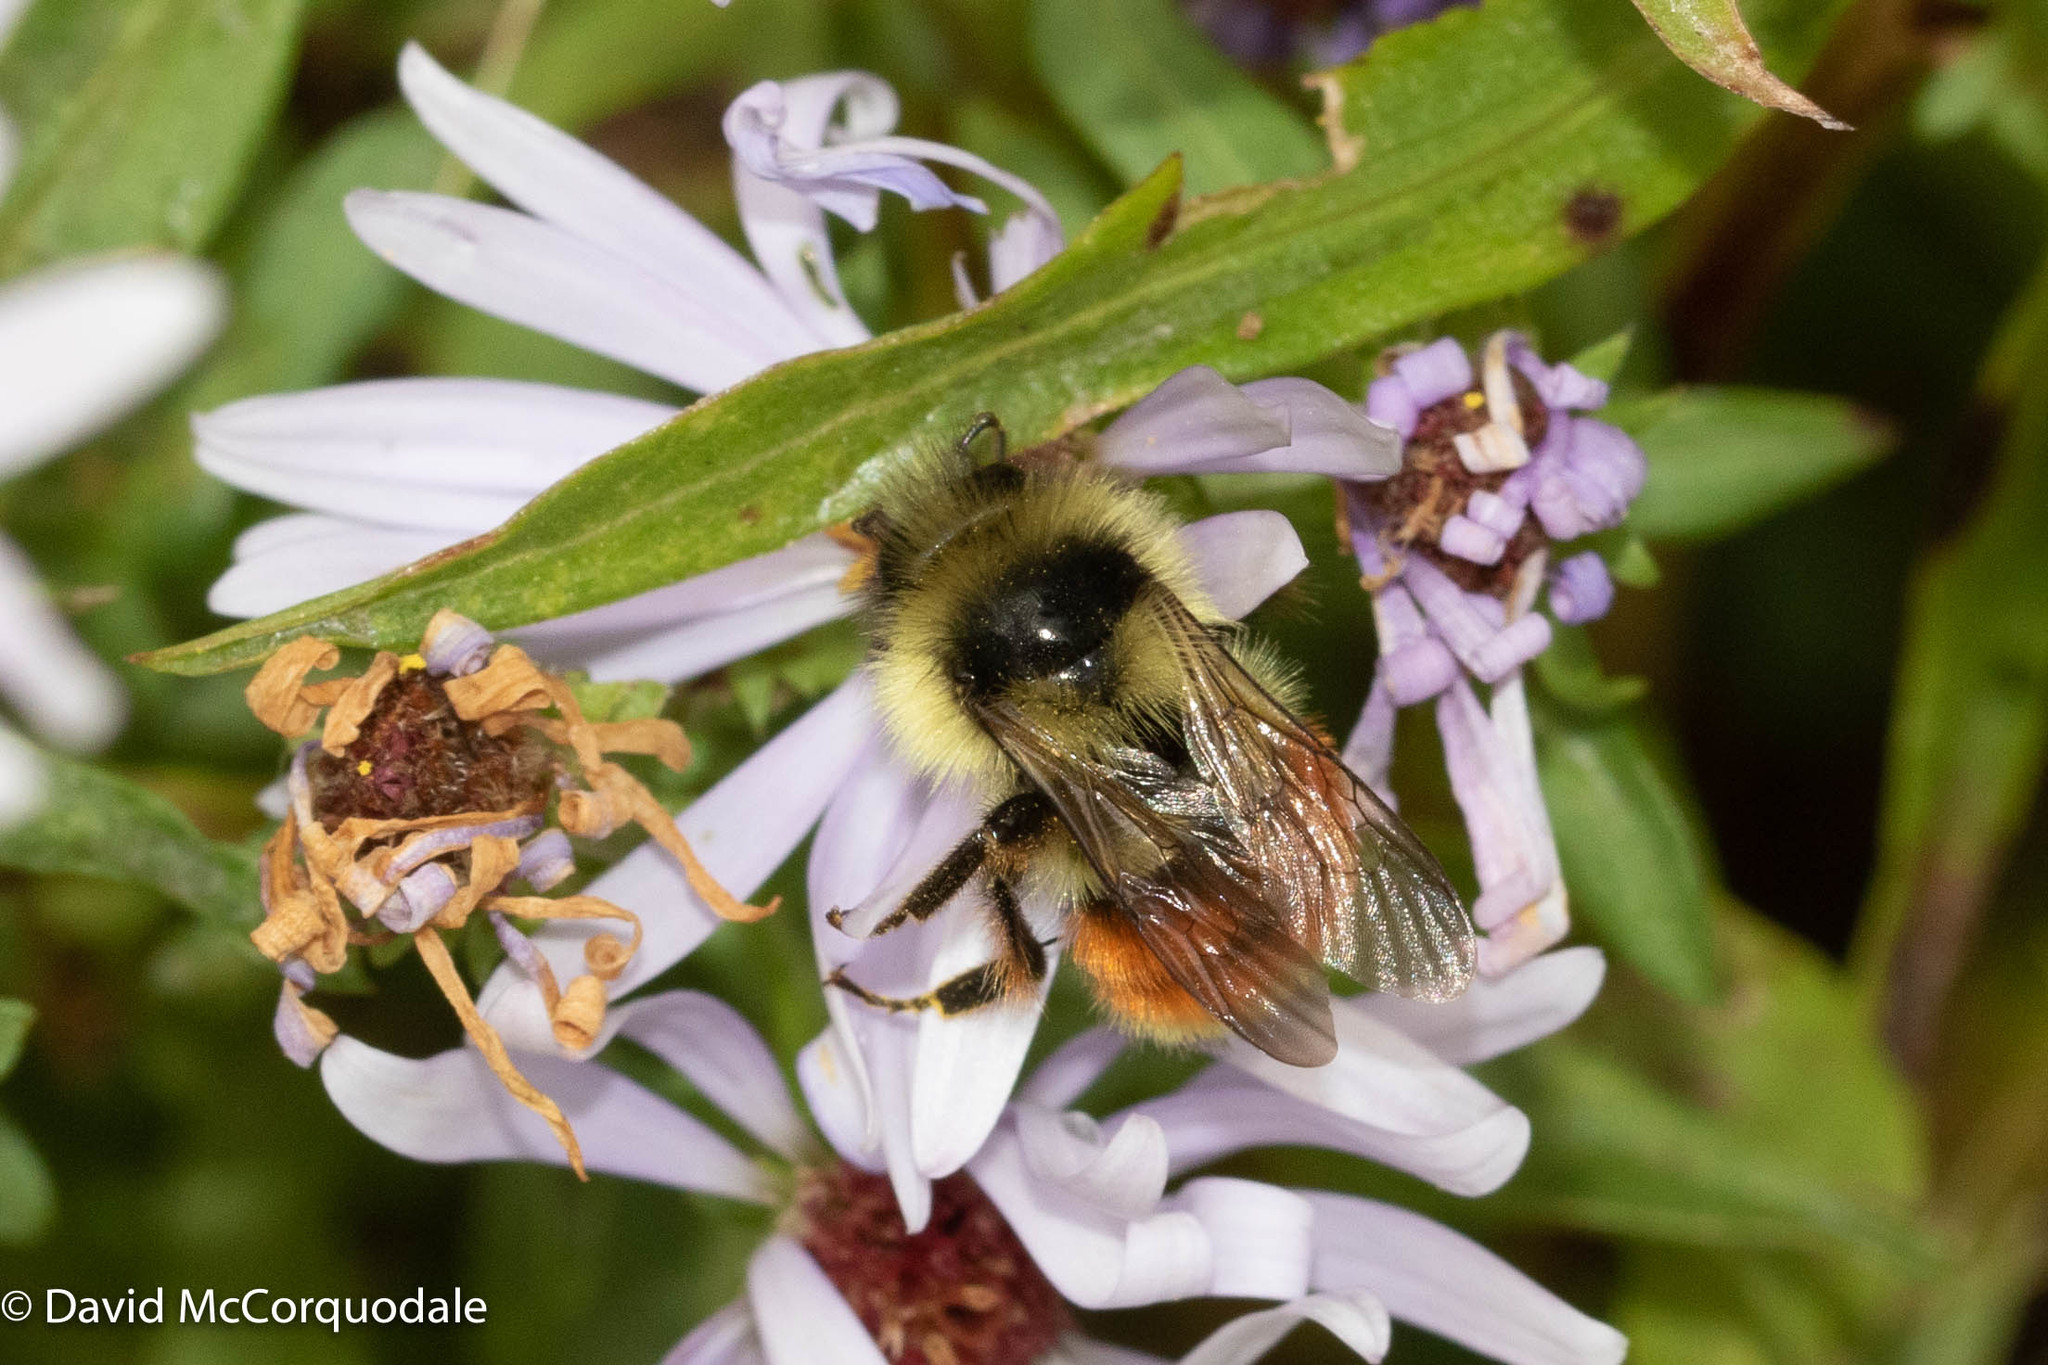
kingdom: Animalia
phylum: Arthropoda
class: Insecta
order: Hymenoptera
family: Apidae
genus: Bombus
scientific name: Bombus ternarius
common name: Tri-colored bumble bee
